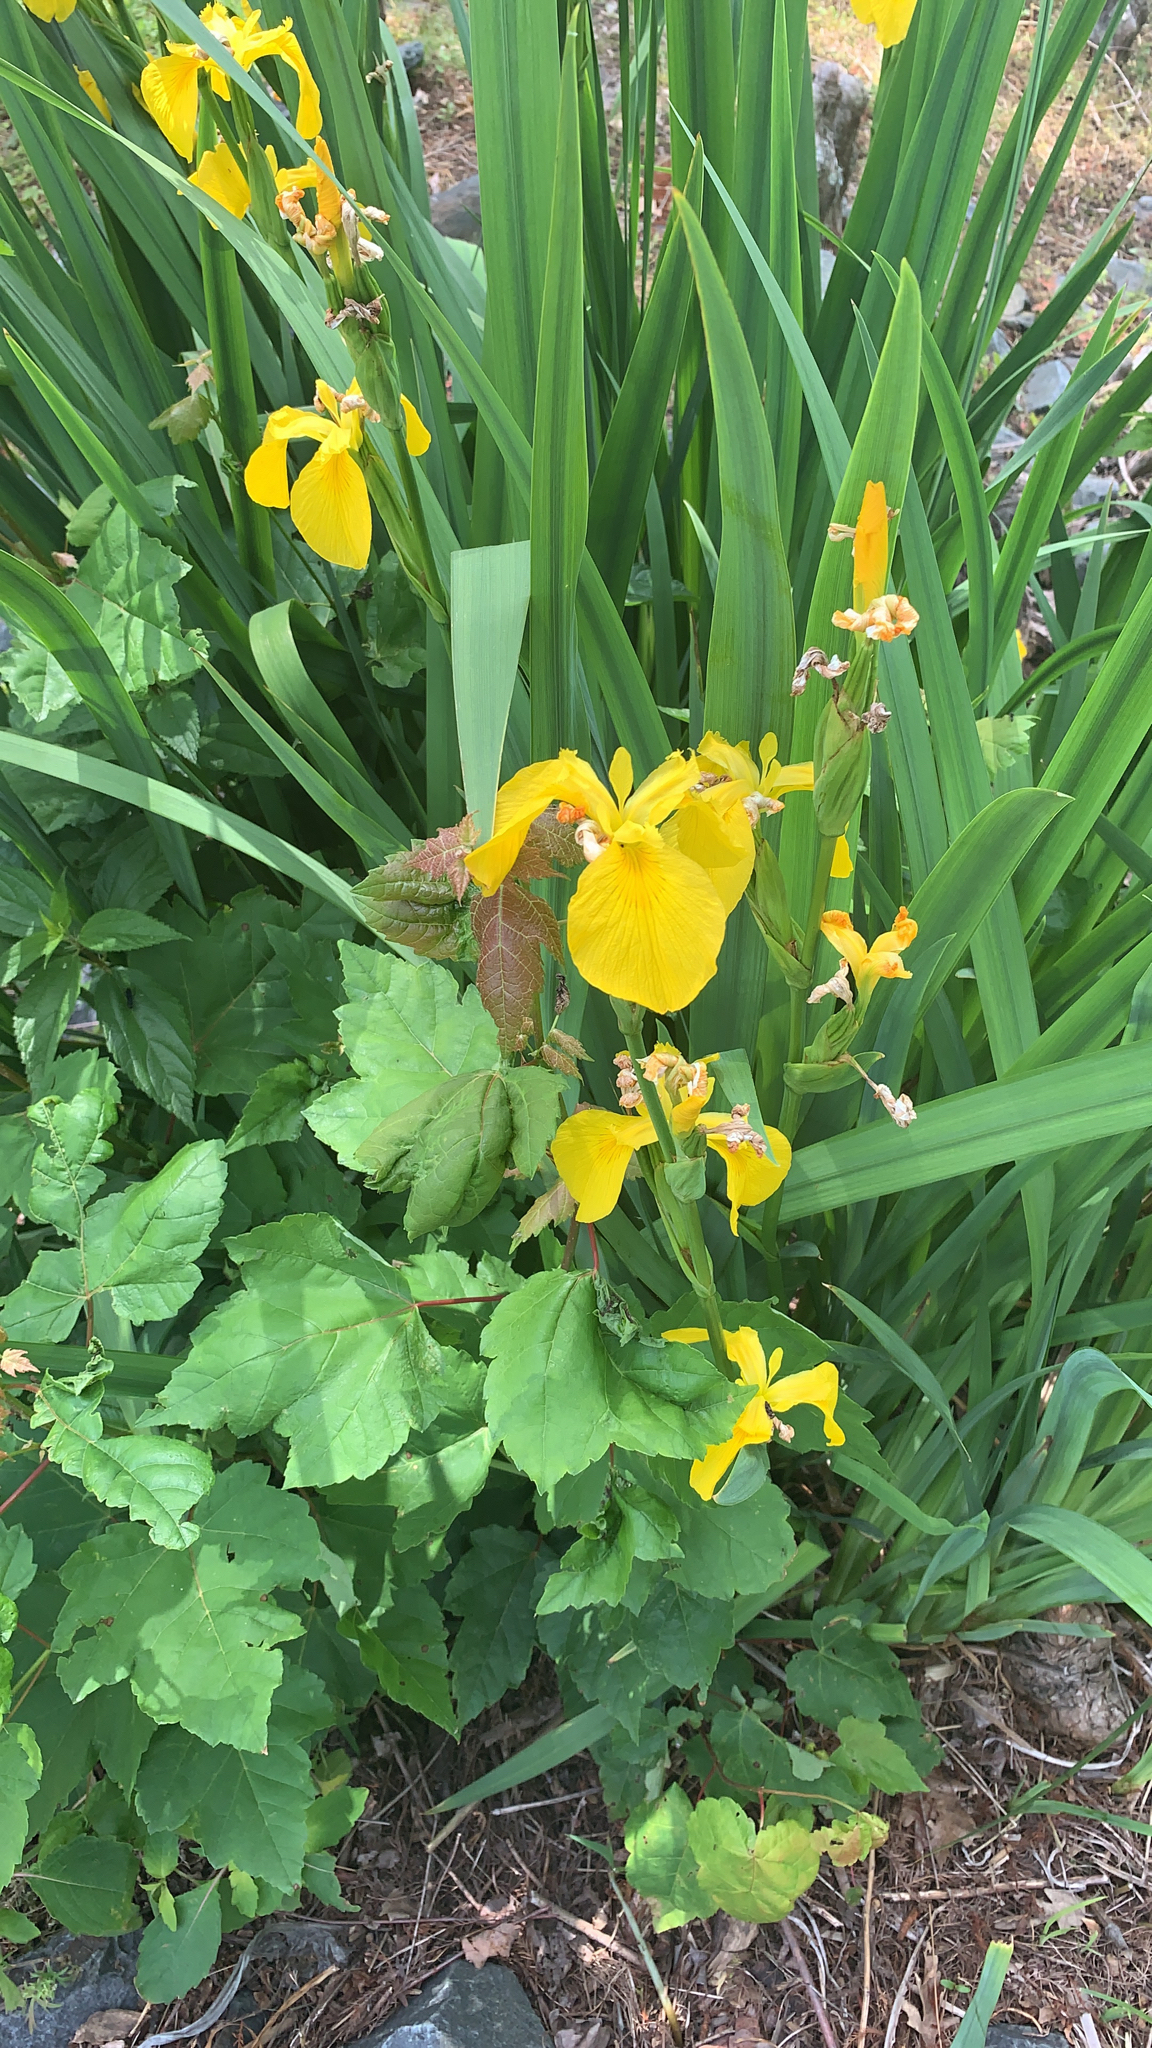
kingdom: Plantae
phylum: Tracheophyta
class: Liliopsida
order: Asparagales
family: Iridaceae
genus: Iris
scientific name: Iris pseudacorus
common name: Yellow flag
